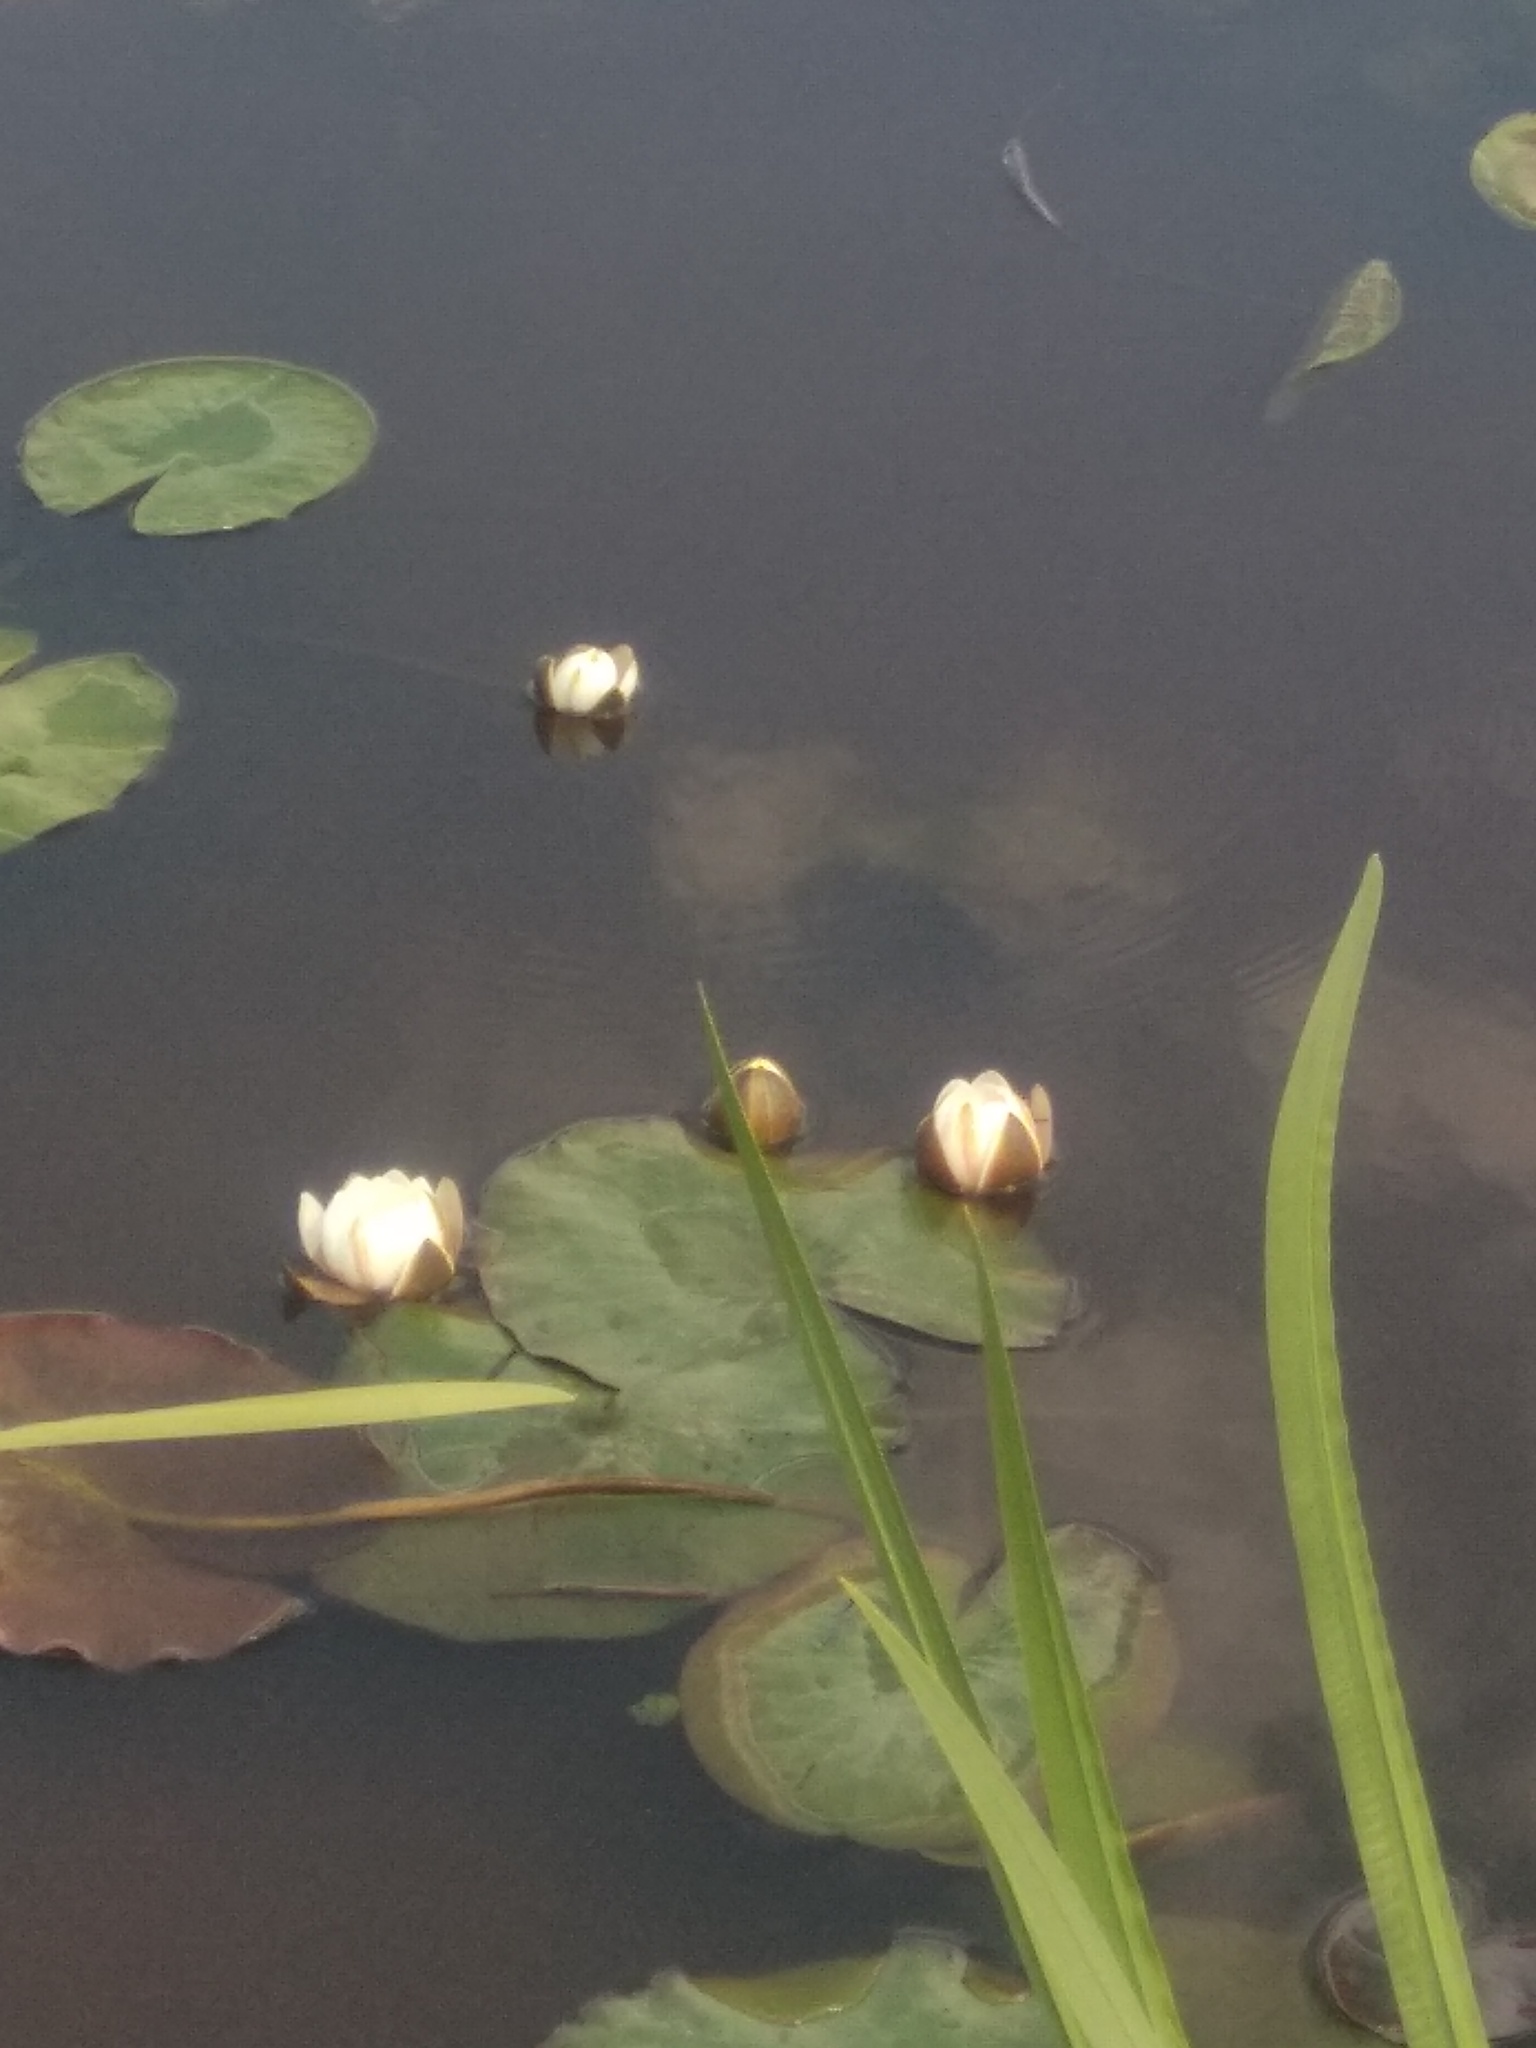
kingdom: Plantae
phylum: Tracheophyta
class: Magnoliopsida
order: Nymphaeales
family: Nymphaeaceae
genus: Nymphaea
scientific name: Nymphaea candida
